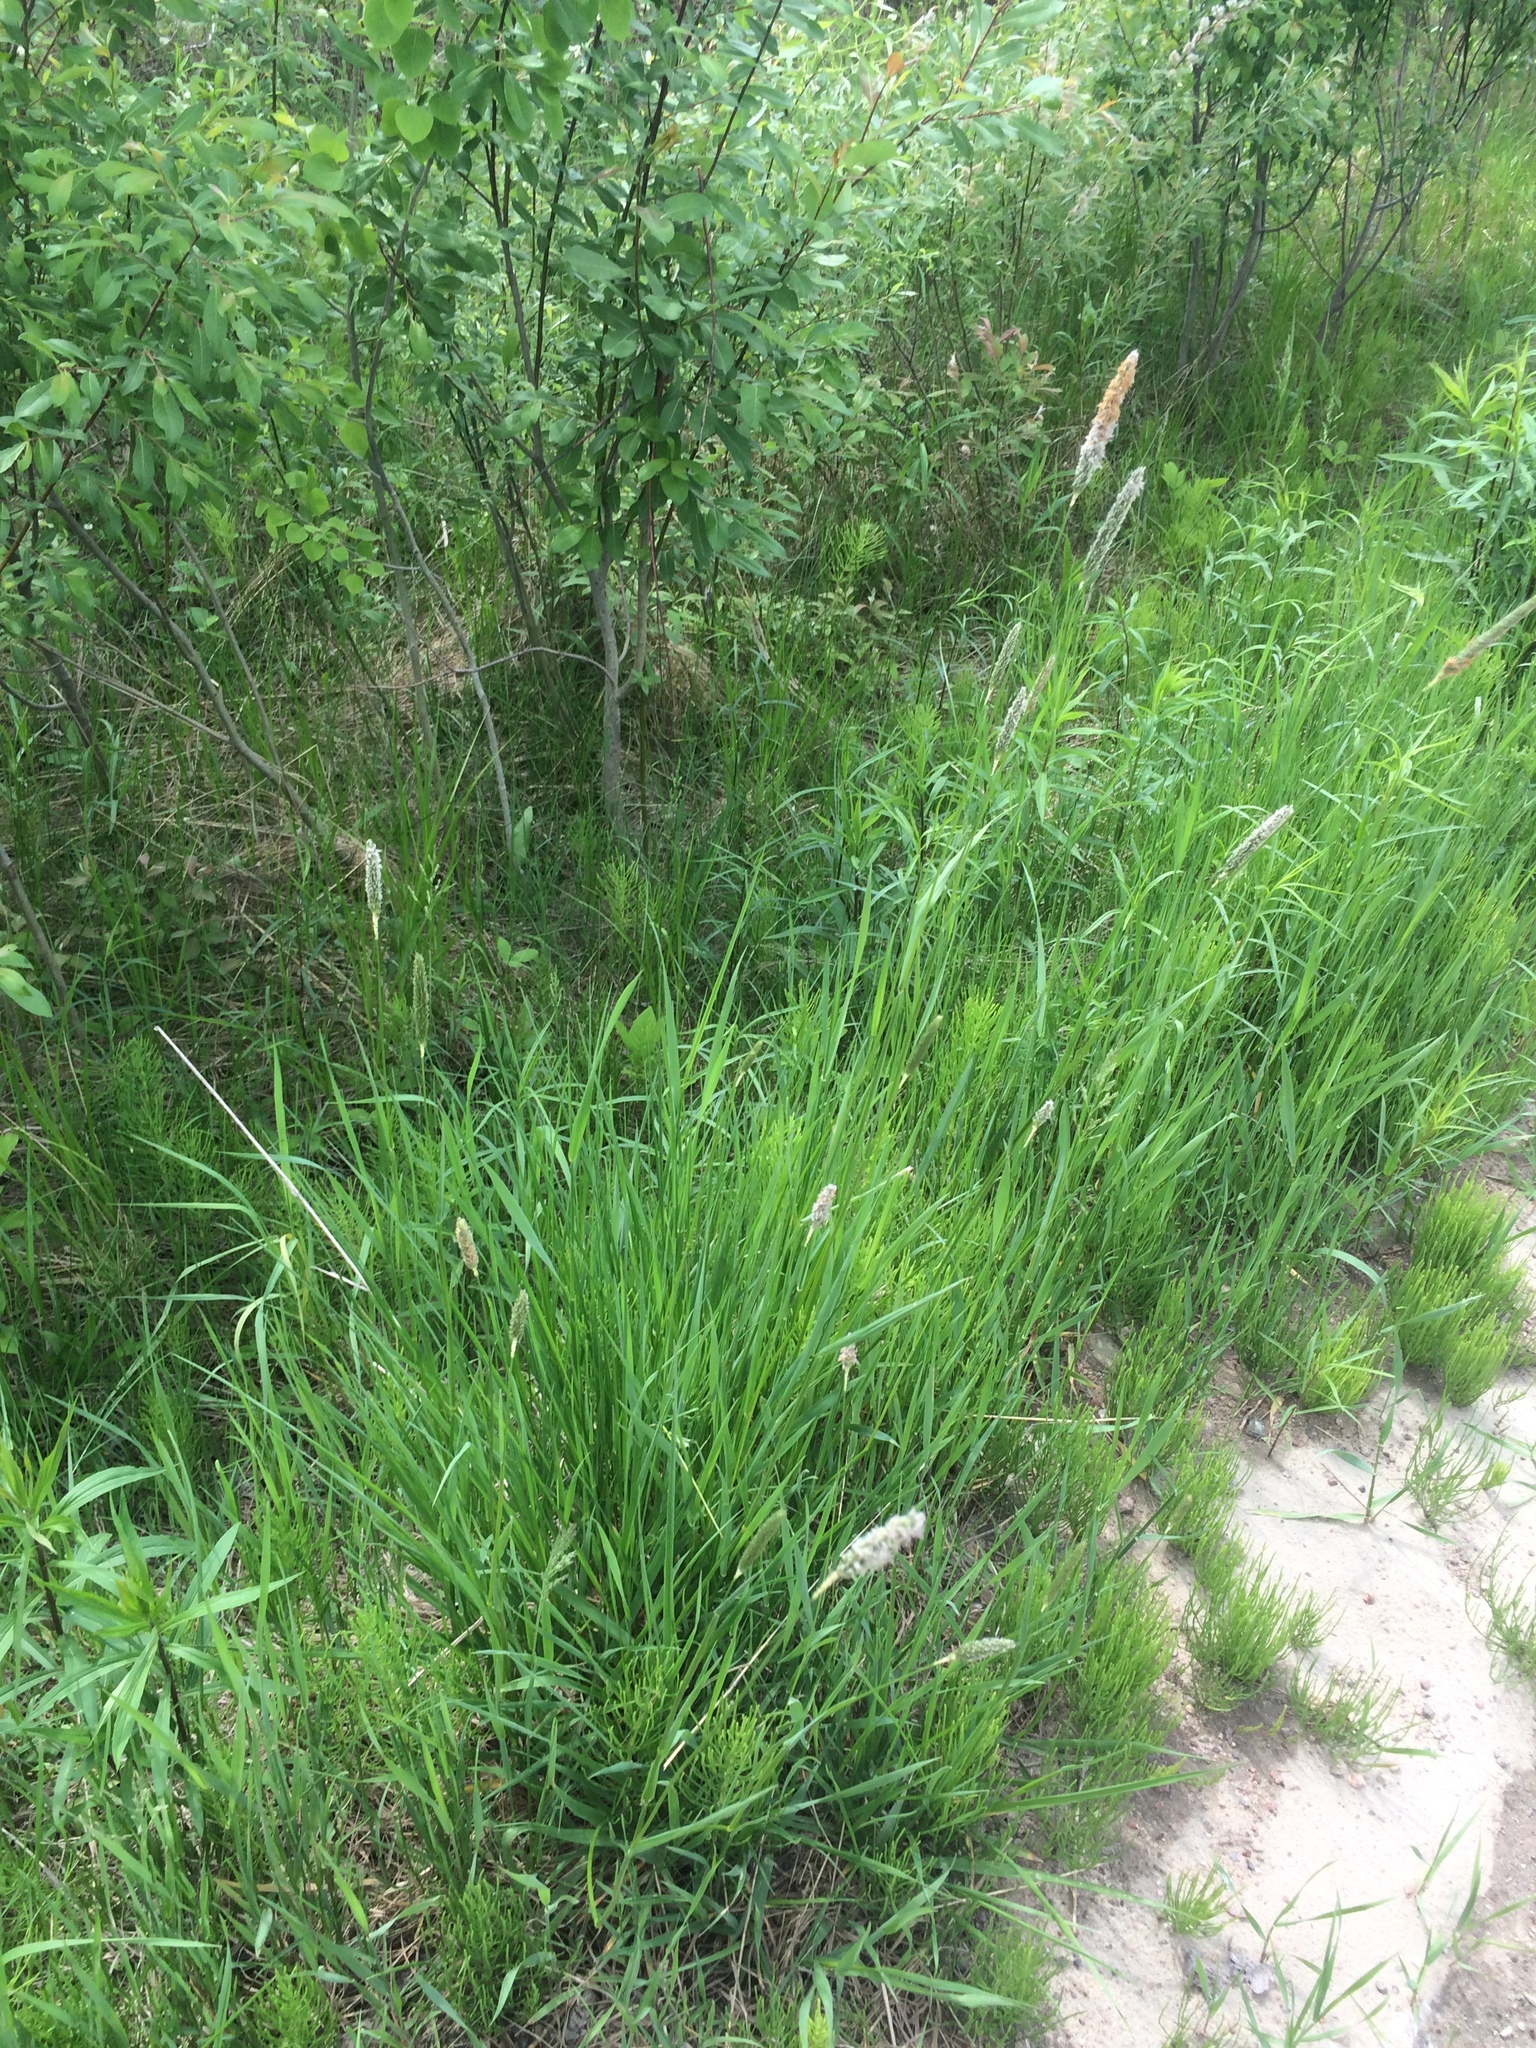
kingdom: Plantae
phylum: Tracheophyta
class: Liliopsida
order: Poales
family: Poaceae
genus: Alopecurus
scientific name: Alopecurus pratensis
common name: Meadow foxtail
